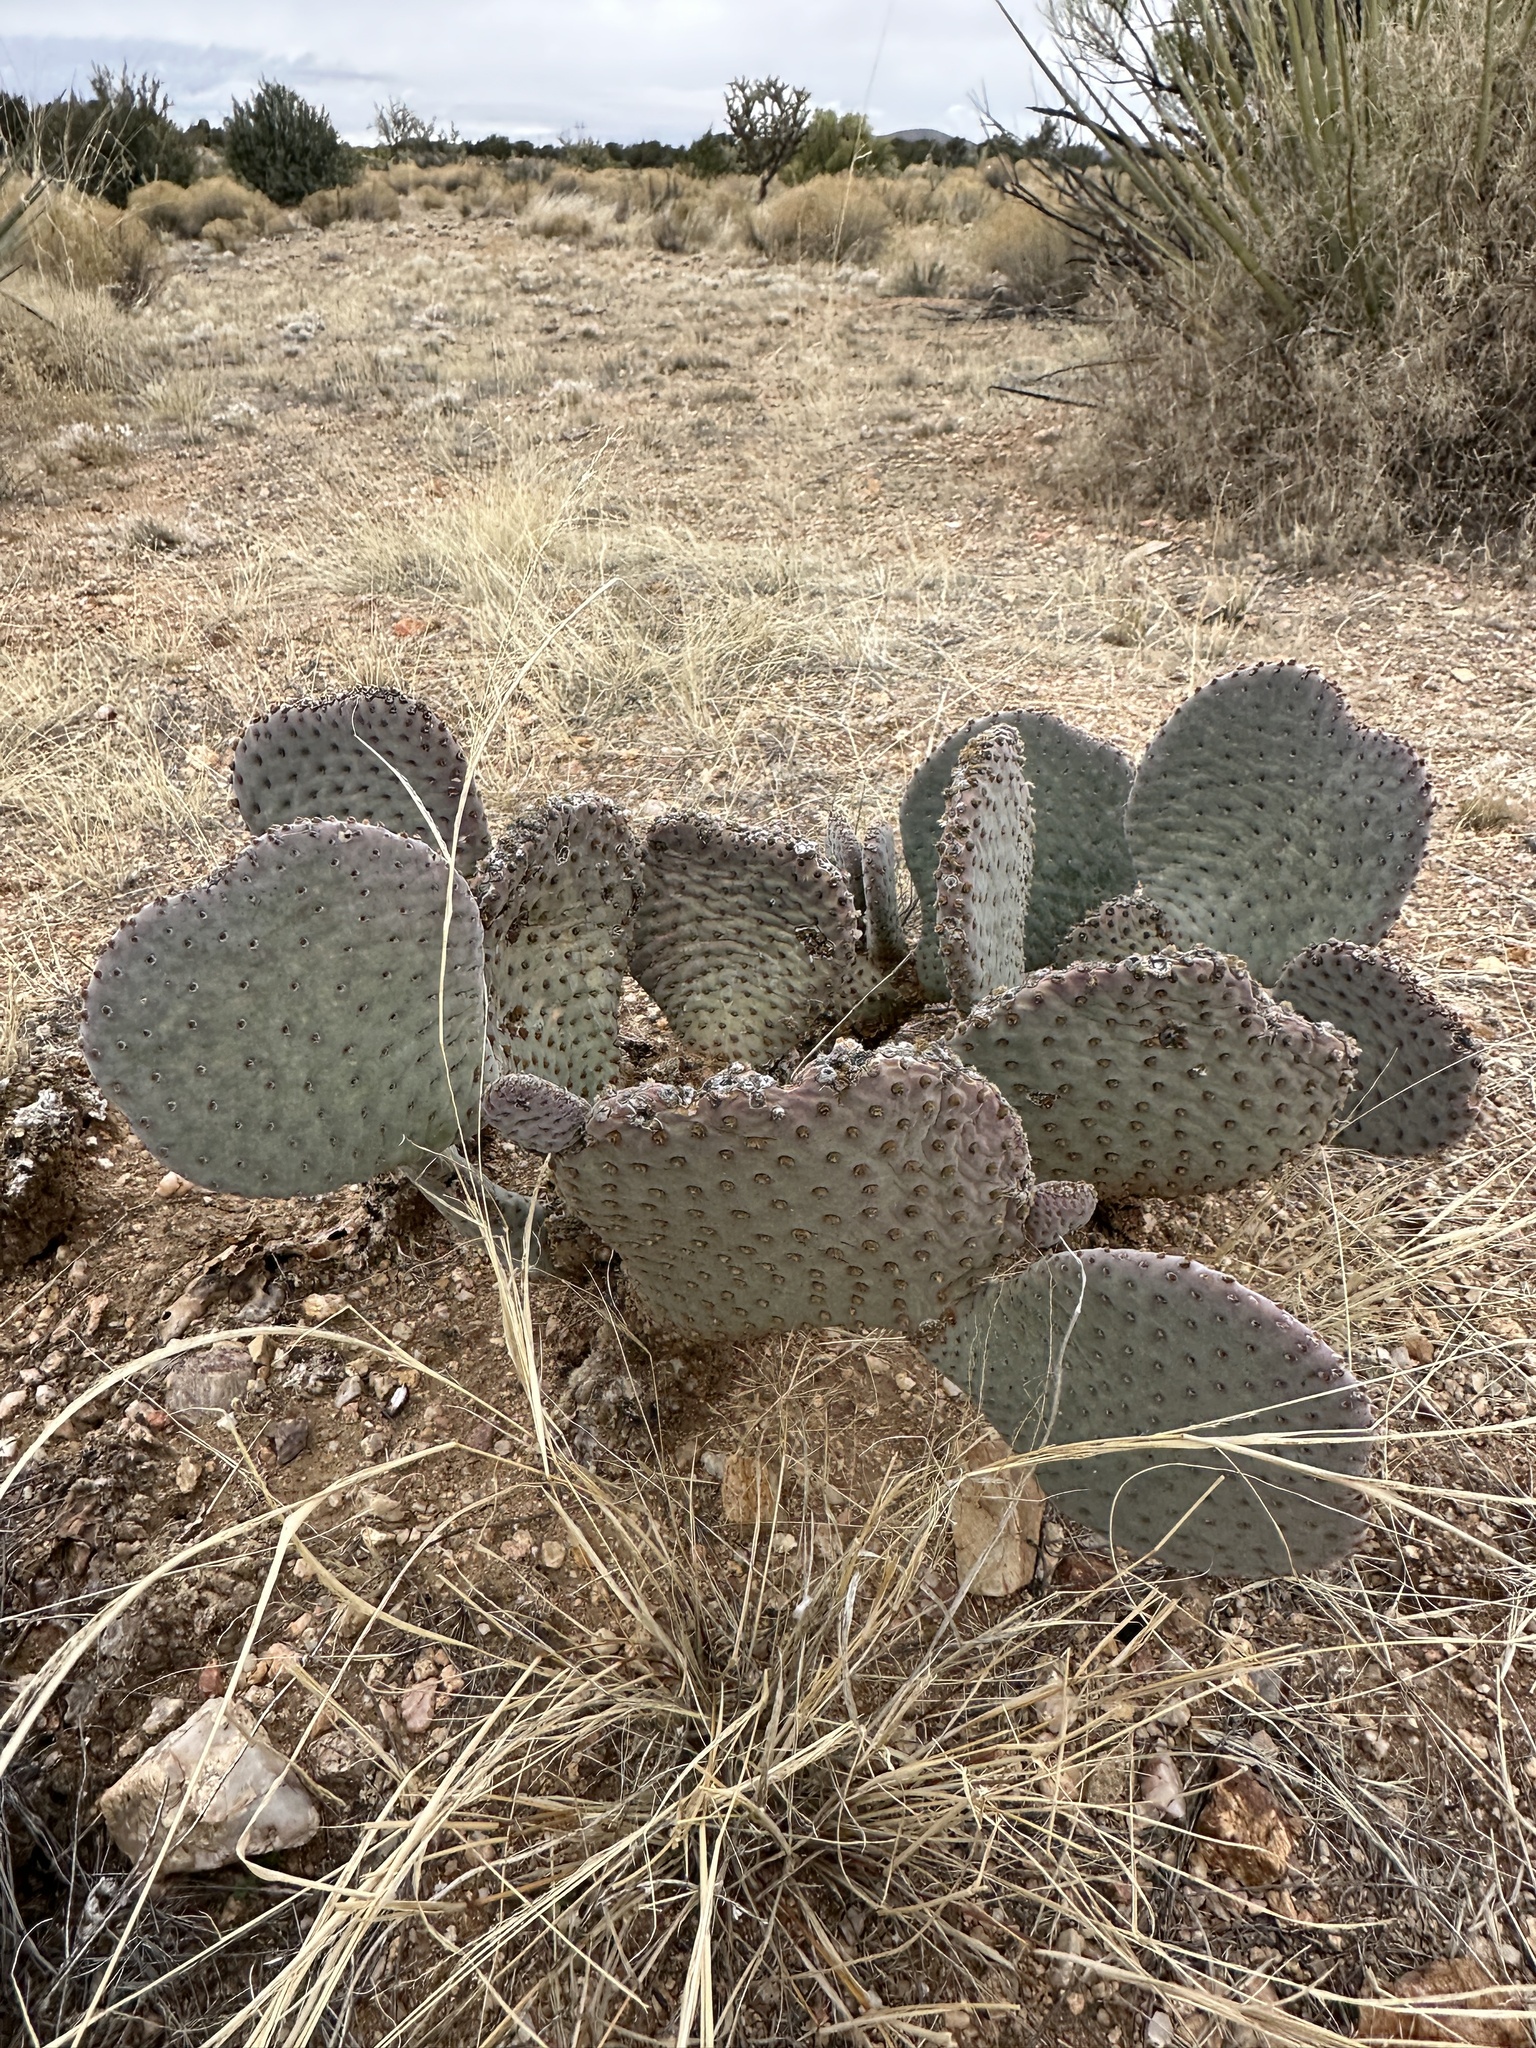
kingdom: Plantae
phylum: Tracheophyta
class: Magnoliopsida
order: Caryophyllales
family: Cactaceae
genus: Opuntia
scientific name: Opuntia basilaris
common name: Beavertail prickly-pear
